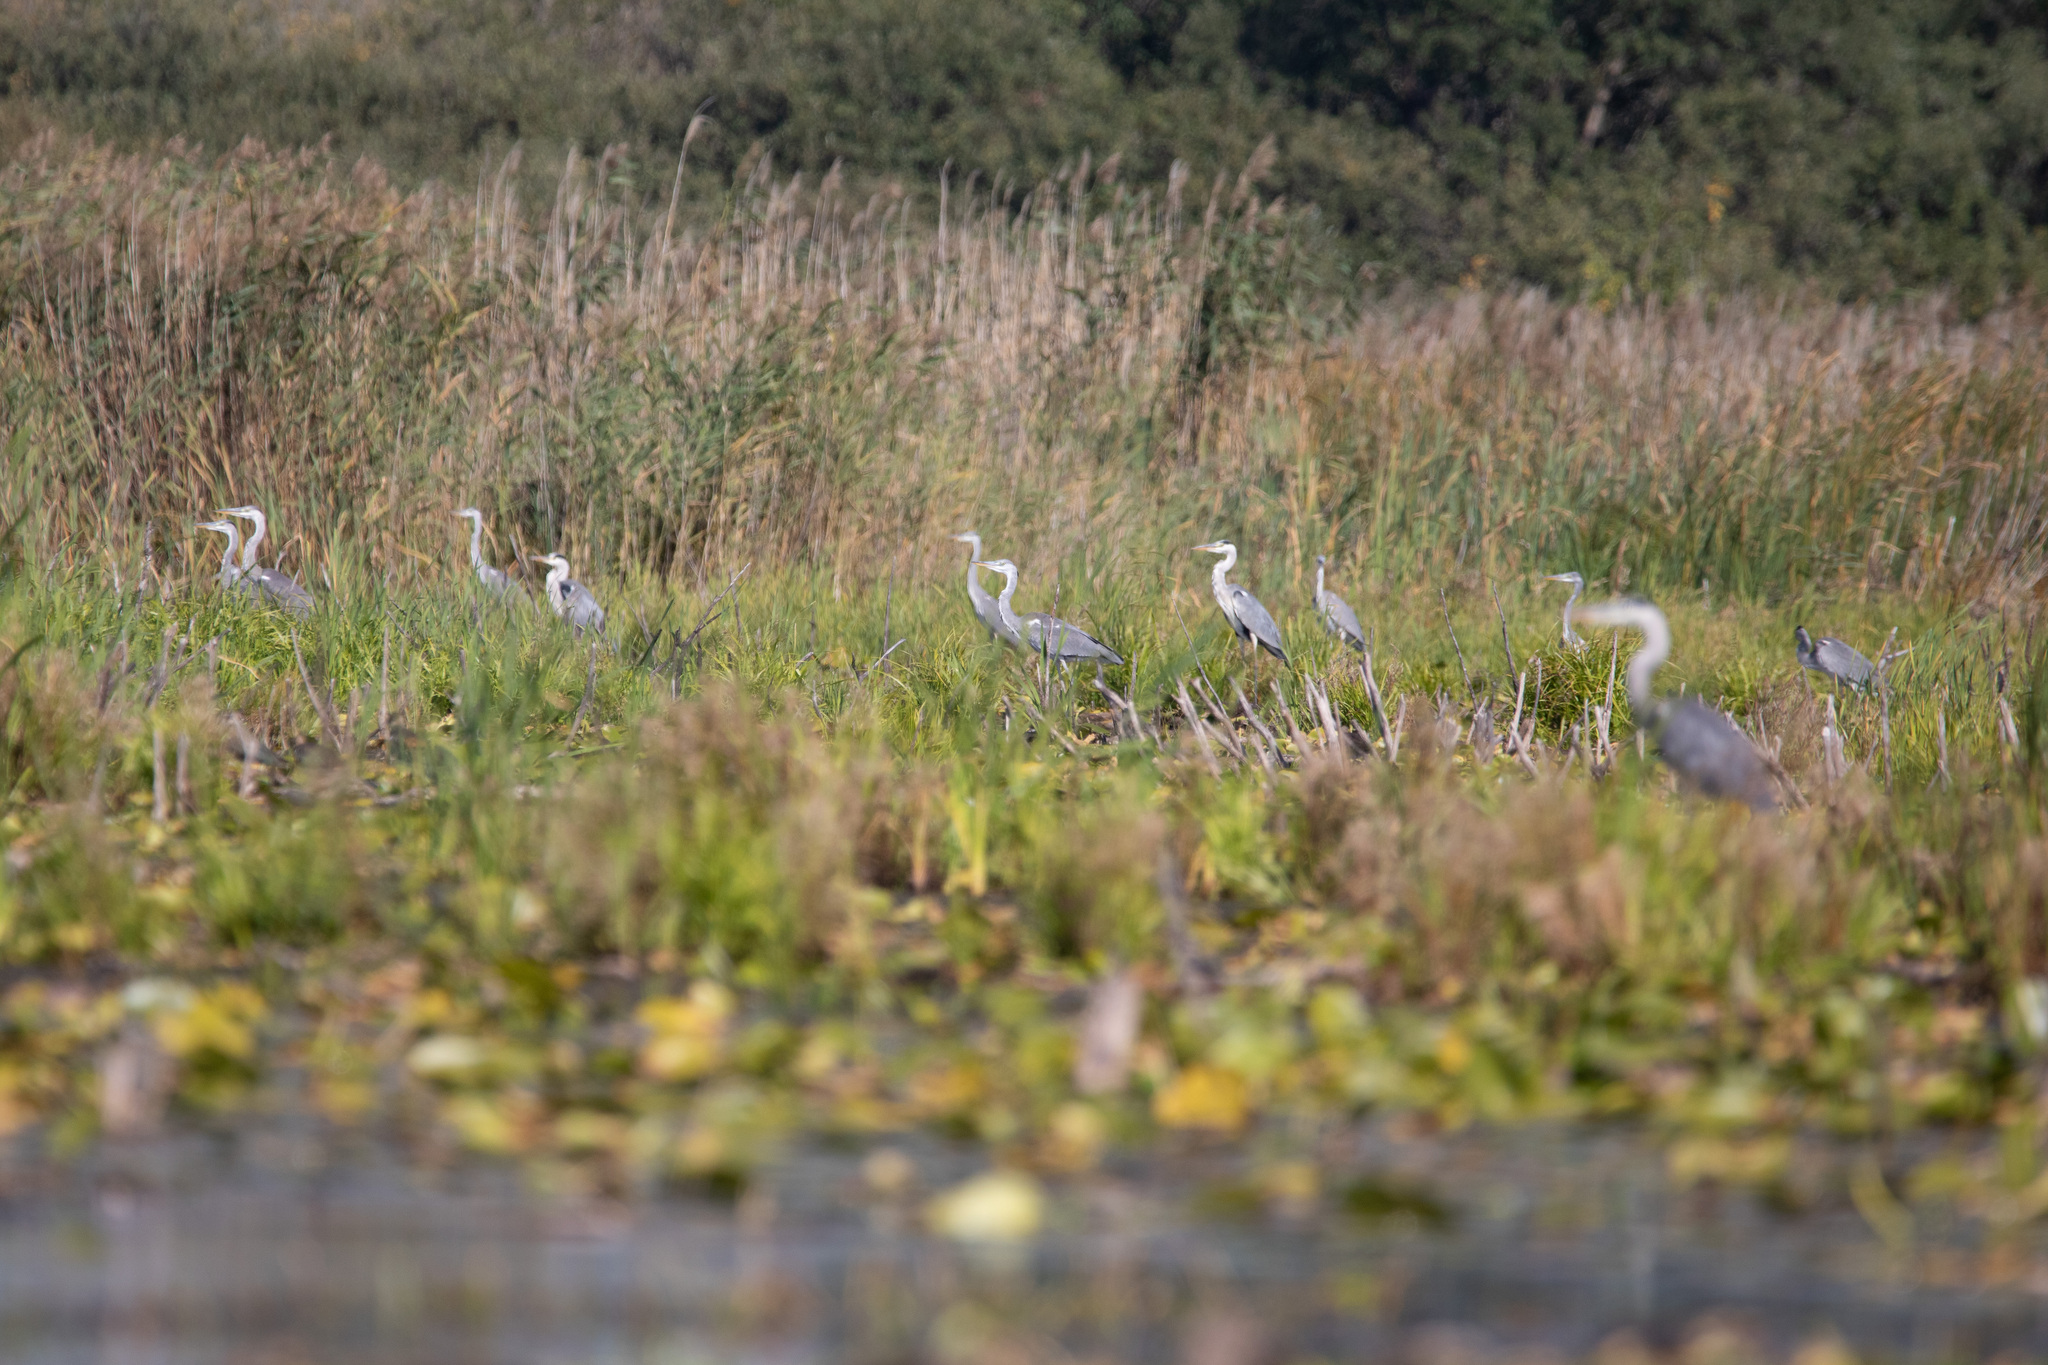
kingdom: Animalia
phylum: Chordata
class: Aves
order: Pelecaniformes
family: Ardeidae
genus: Ardea
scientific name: Ardea cinerea
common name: Grey heron
